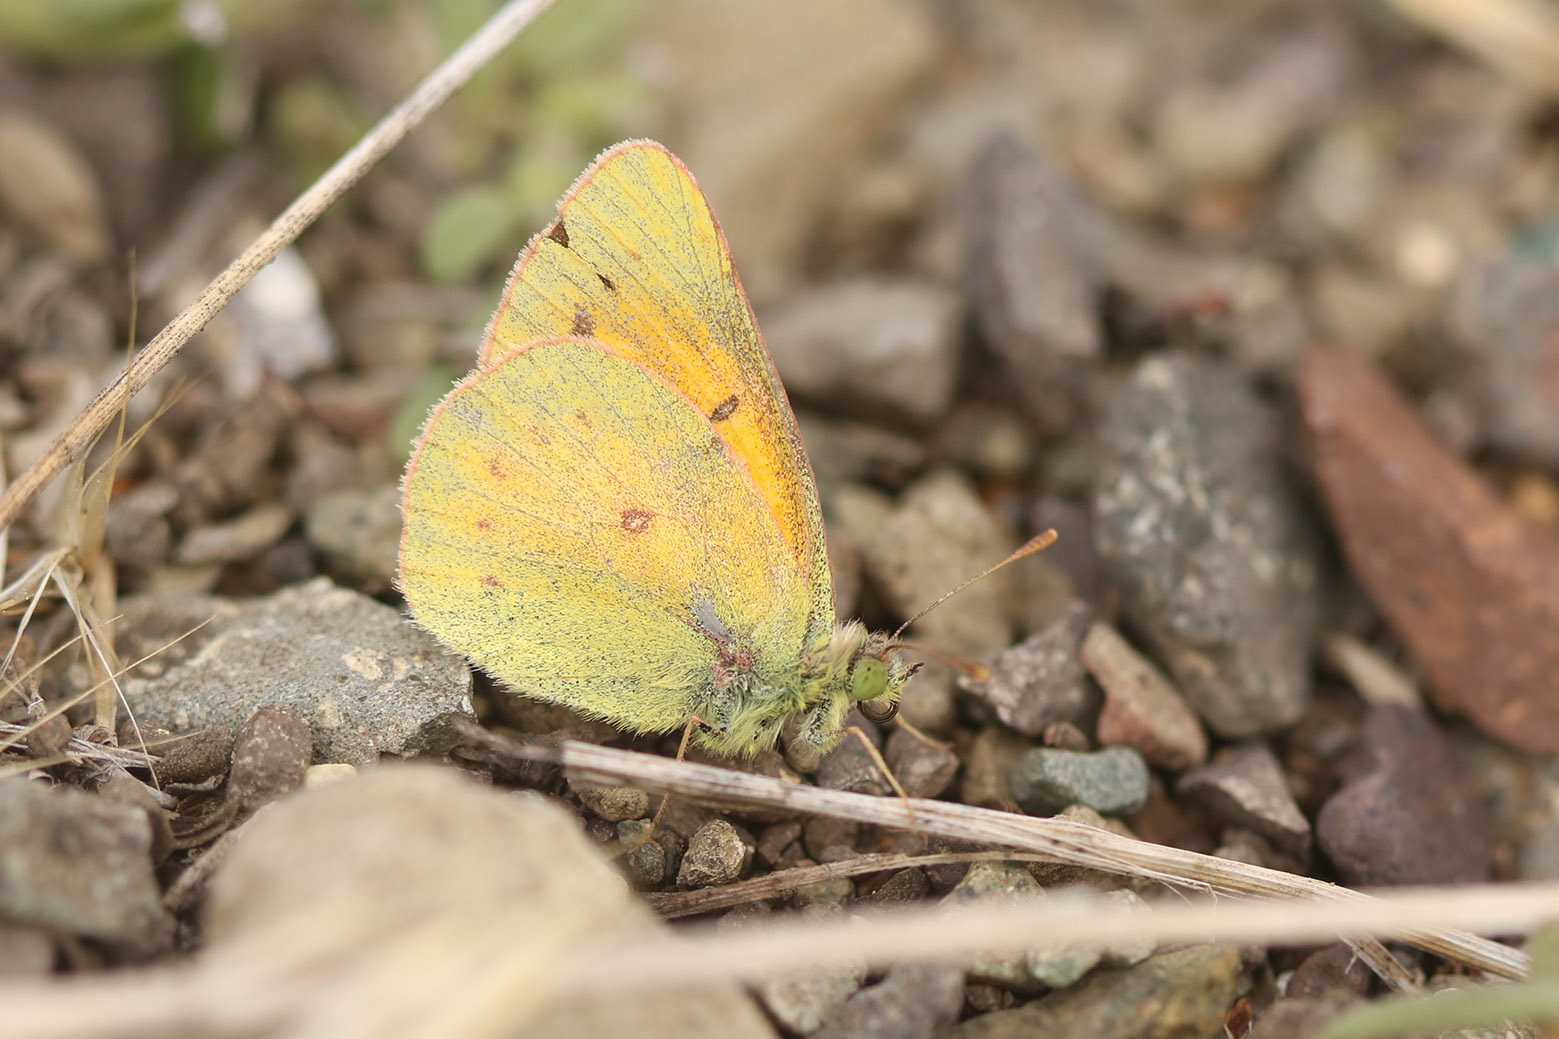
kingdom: Animalia
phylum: Arthropoda
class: Insecta
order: Lepidoptera
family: Pieridae
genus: Colias
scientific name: Colias vauthierii
